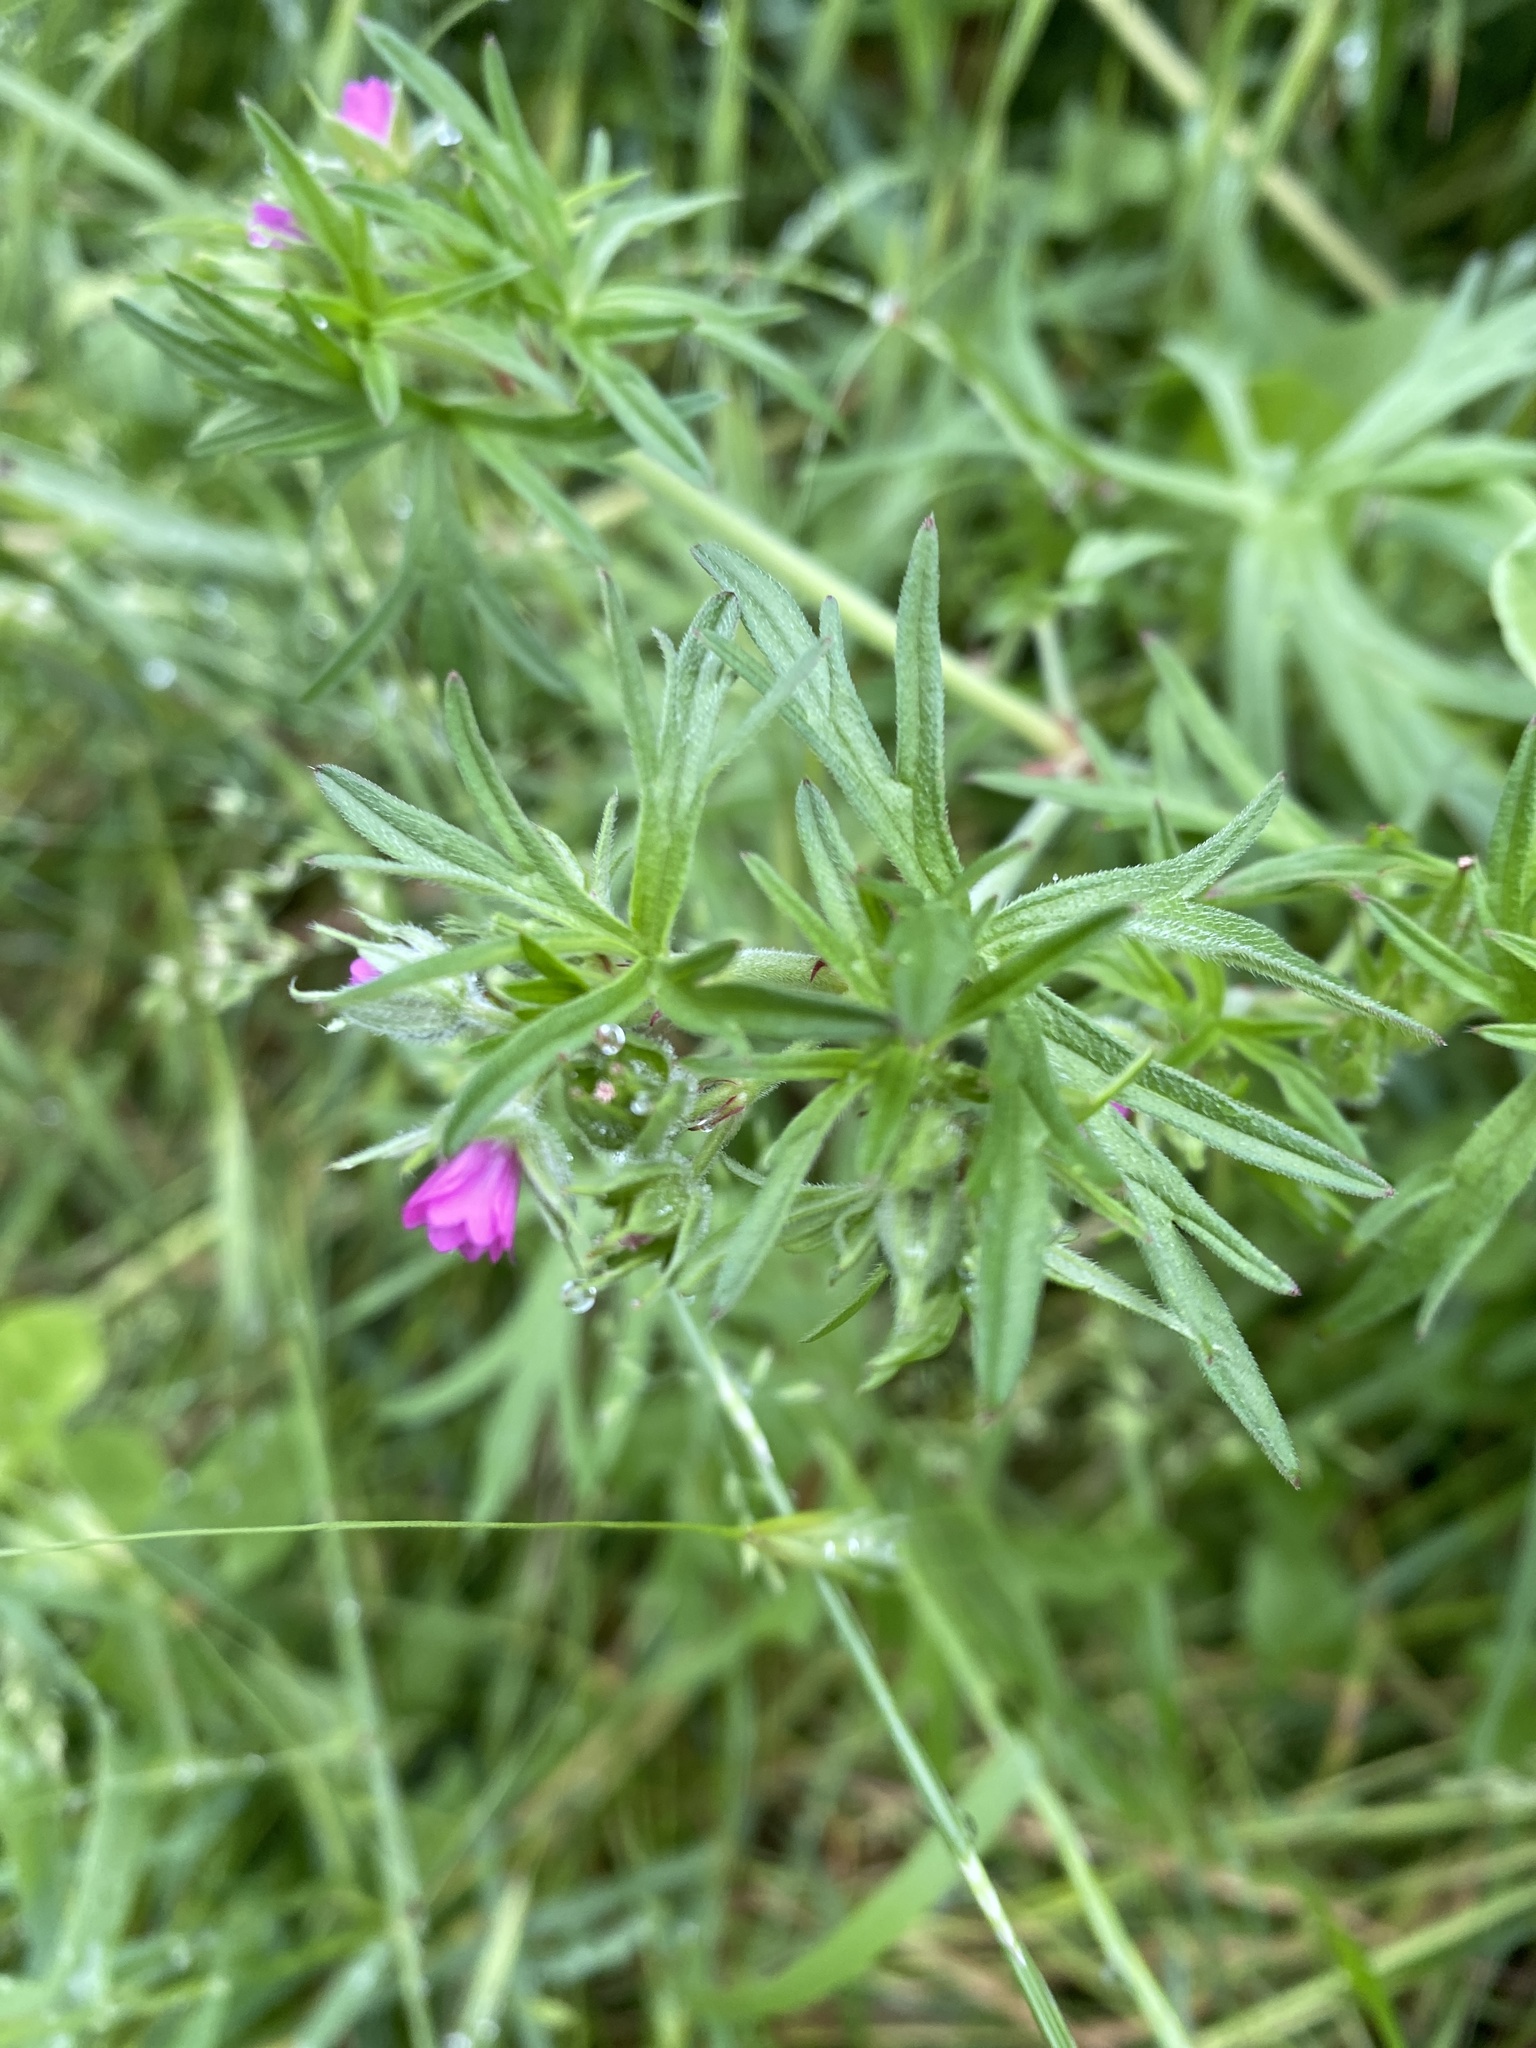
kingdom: Plantae
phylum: Tracheophyta
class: Magnoliopsida
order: Geraniales
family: Geraniaceae
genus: Geranium
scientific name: Geranium dissectum
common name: Cut-leaved crane's-bill
